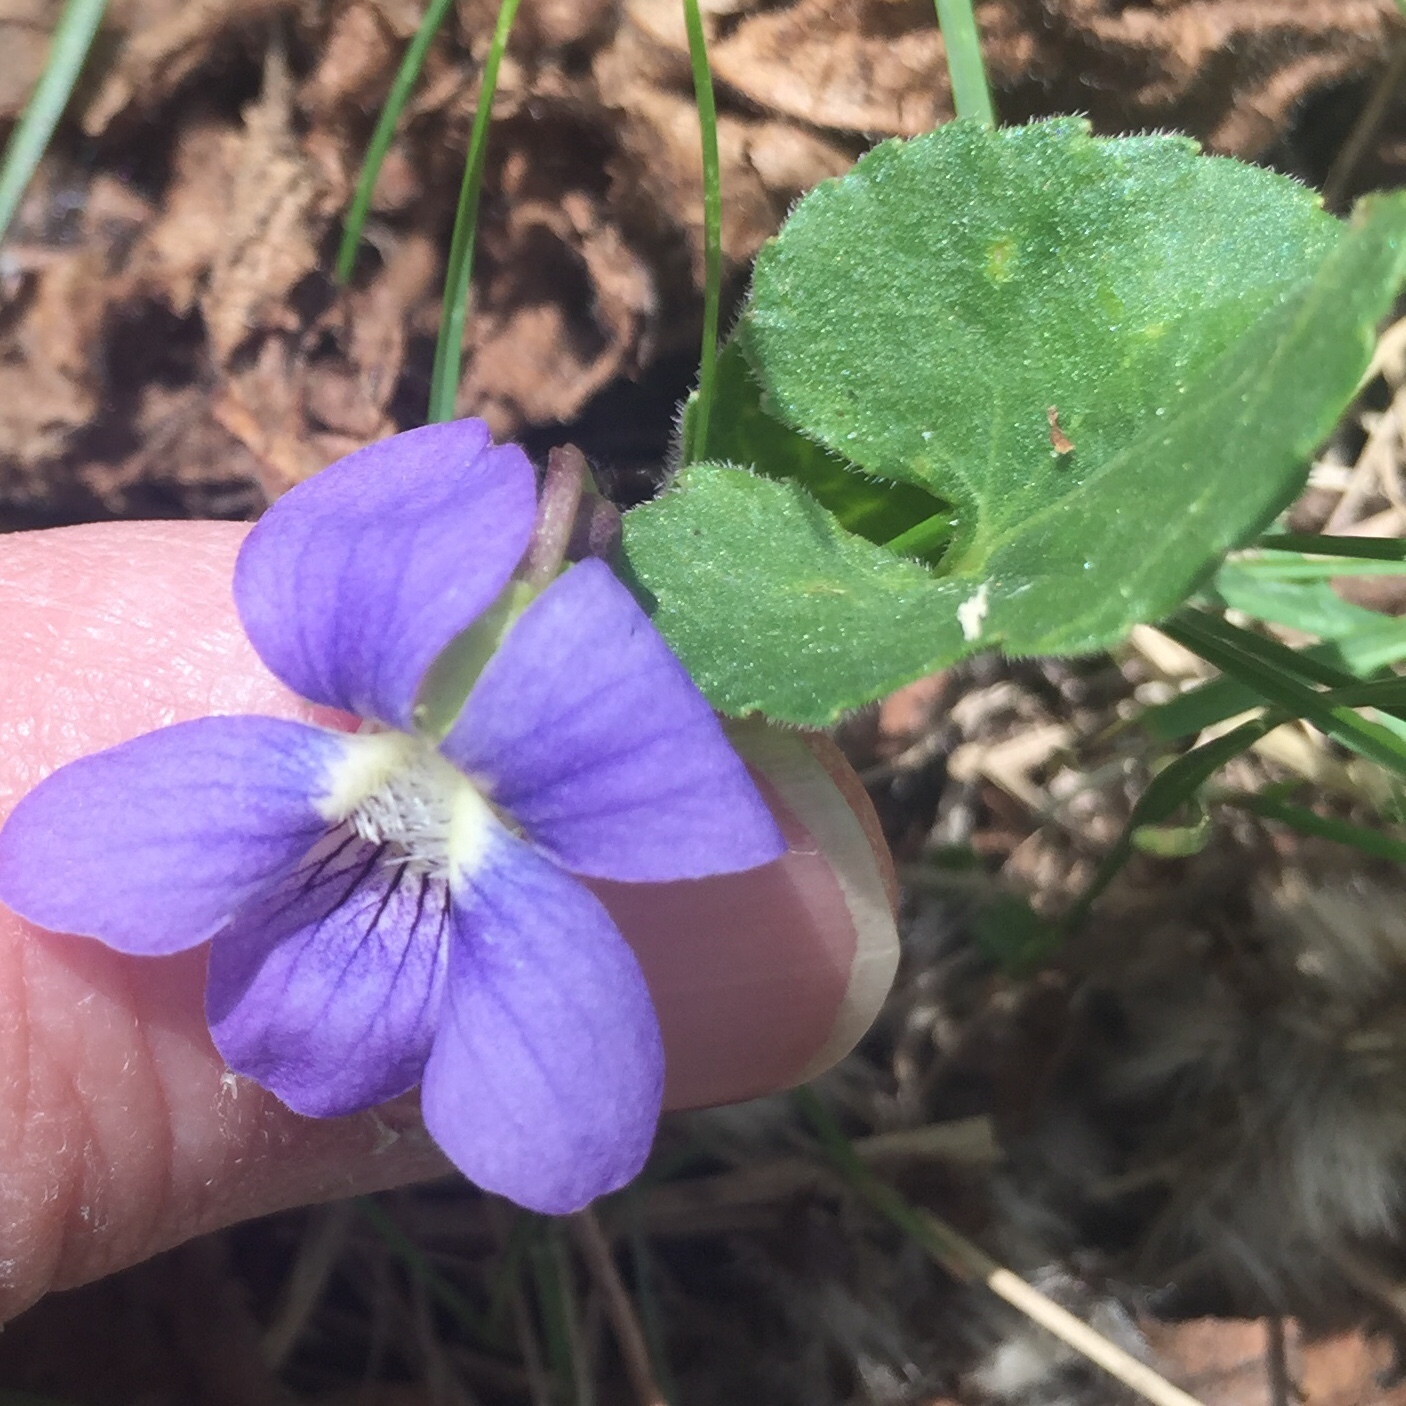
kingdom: Plantae
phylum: Tracheophyta
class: Magnoliopsida
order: Malpighiales
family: Violaceae
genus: Viola
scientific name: Viola adunca
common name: Sand violet
